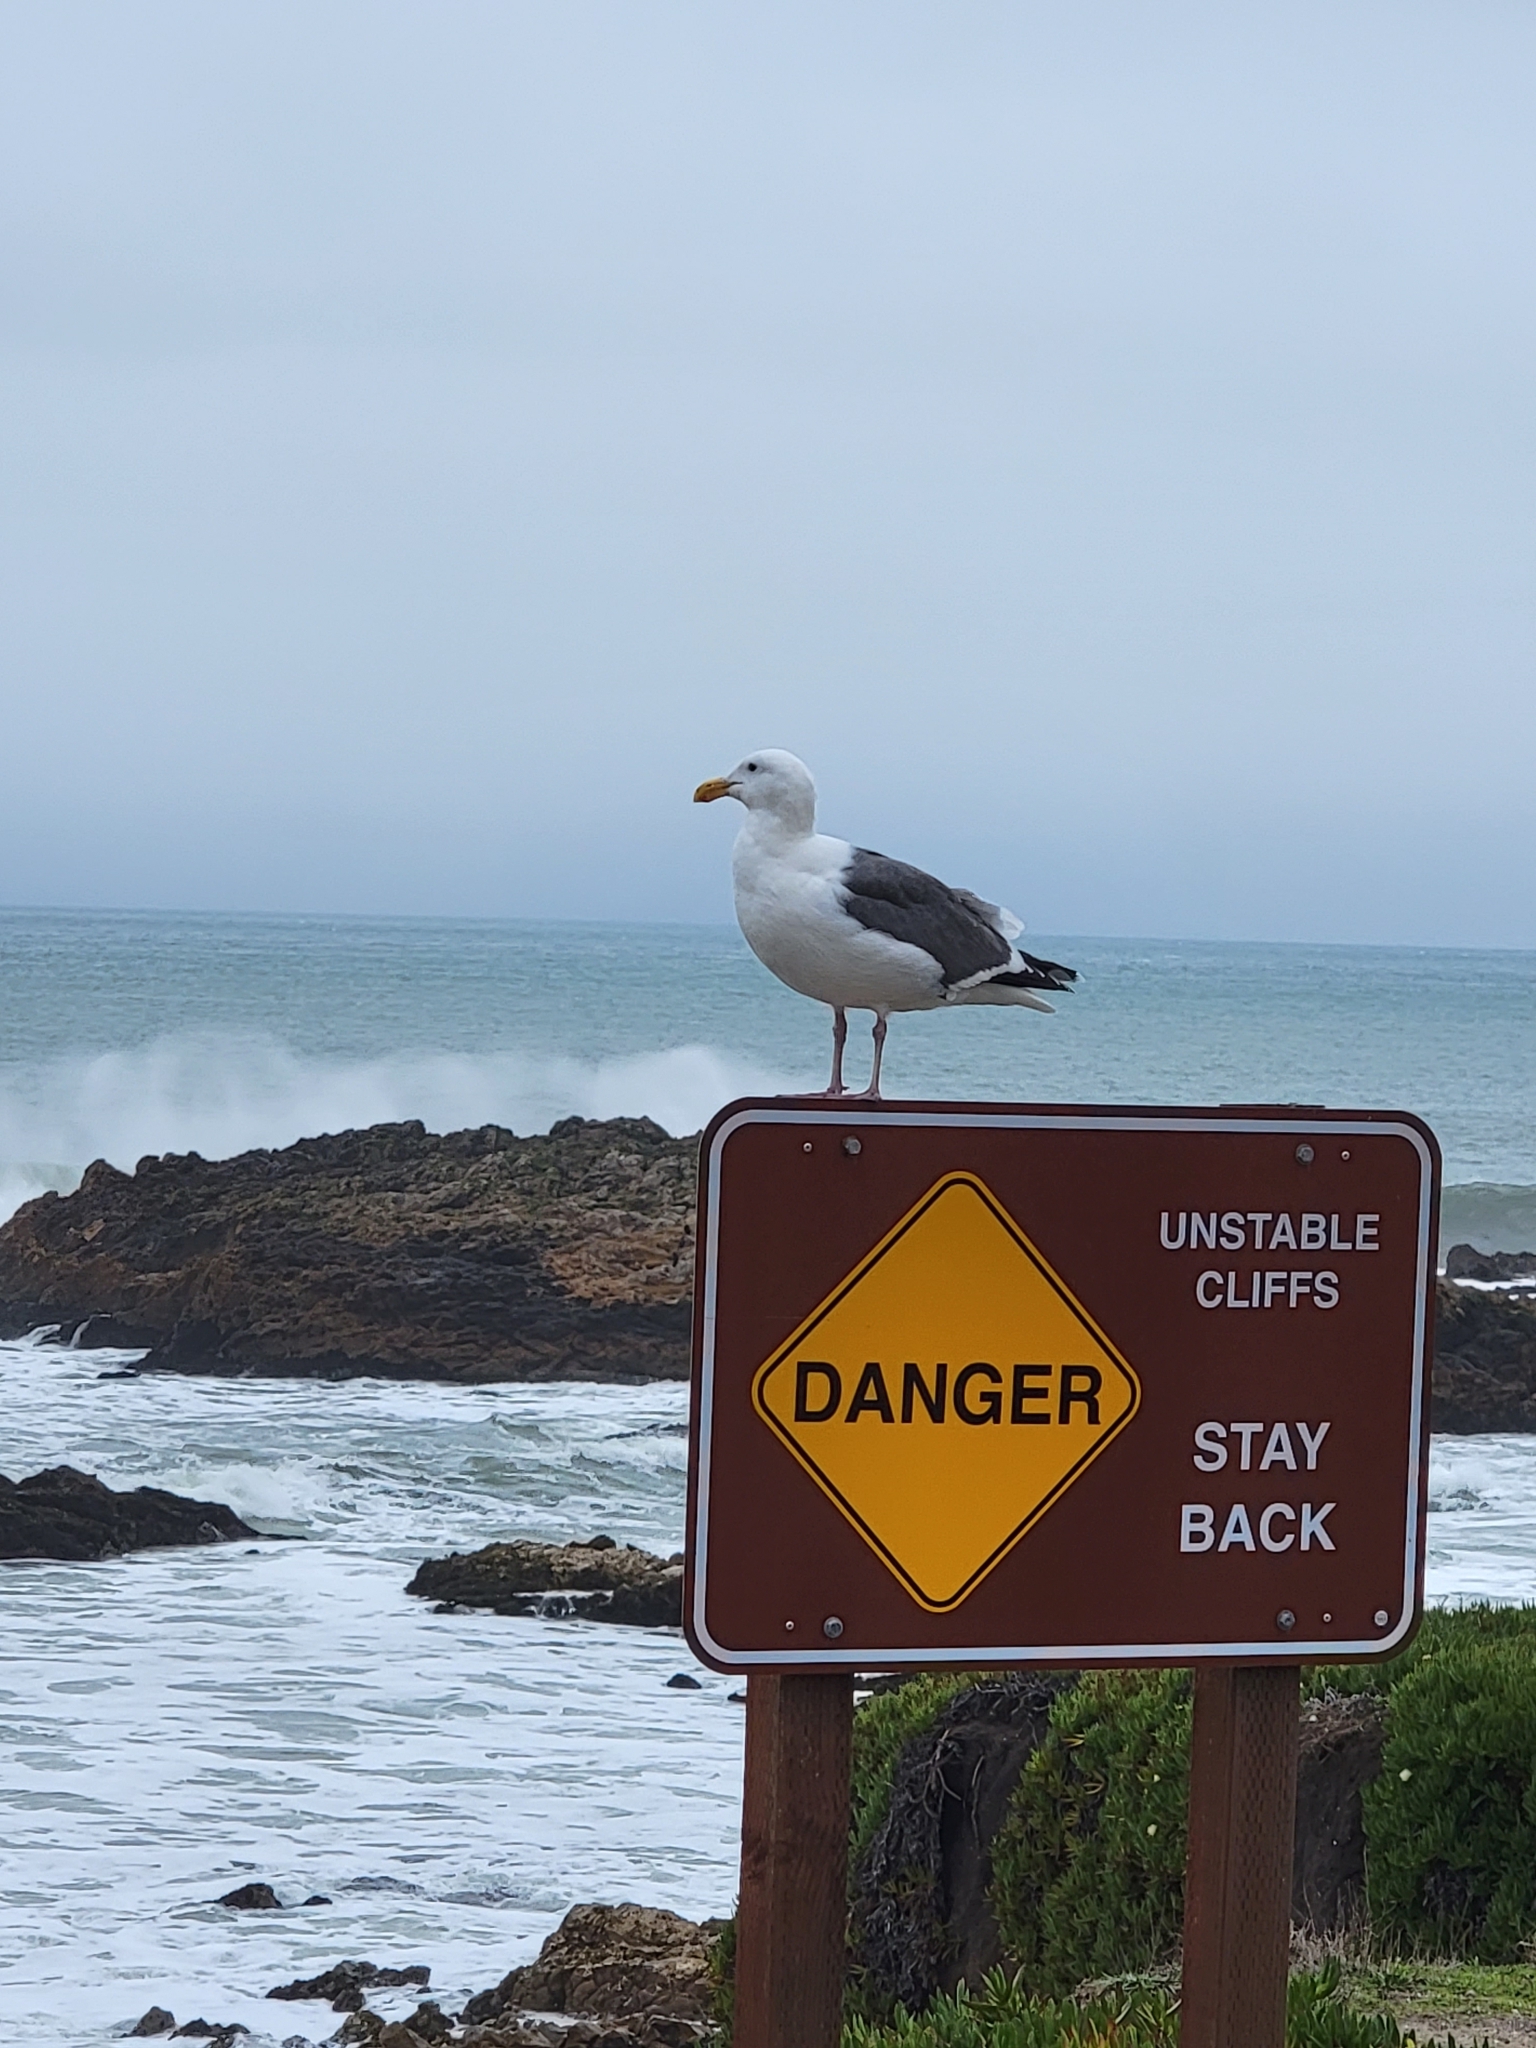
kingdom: Animalia
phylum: Chordata
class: Aves
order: Charadriiformes
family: Laridae
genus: Larus
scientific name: Larus occidentalis
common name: Western gull
